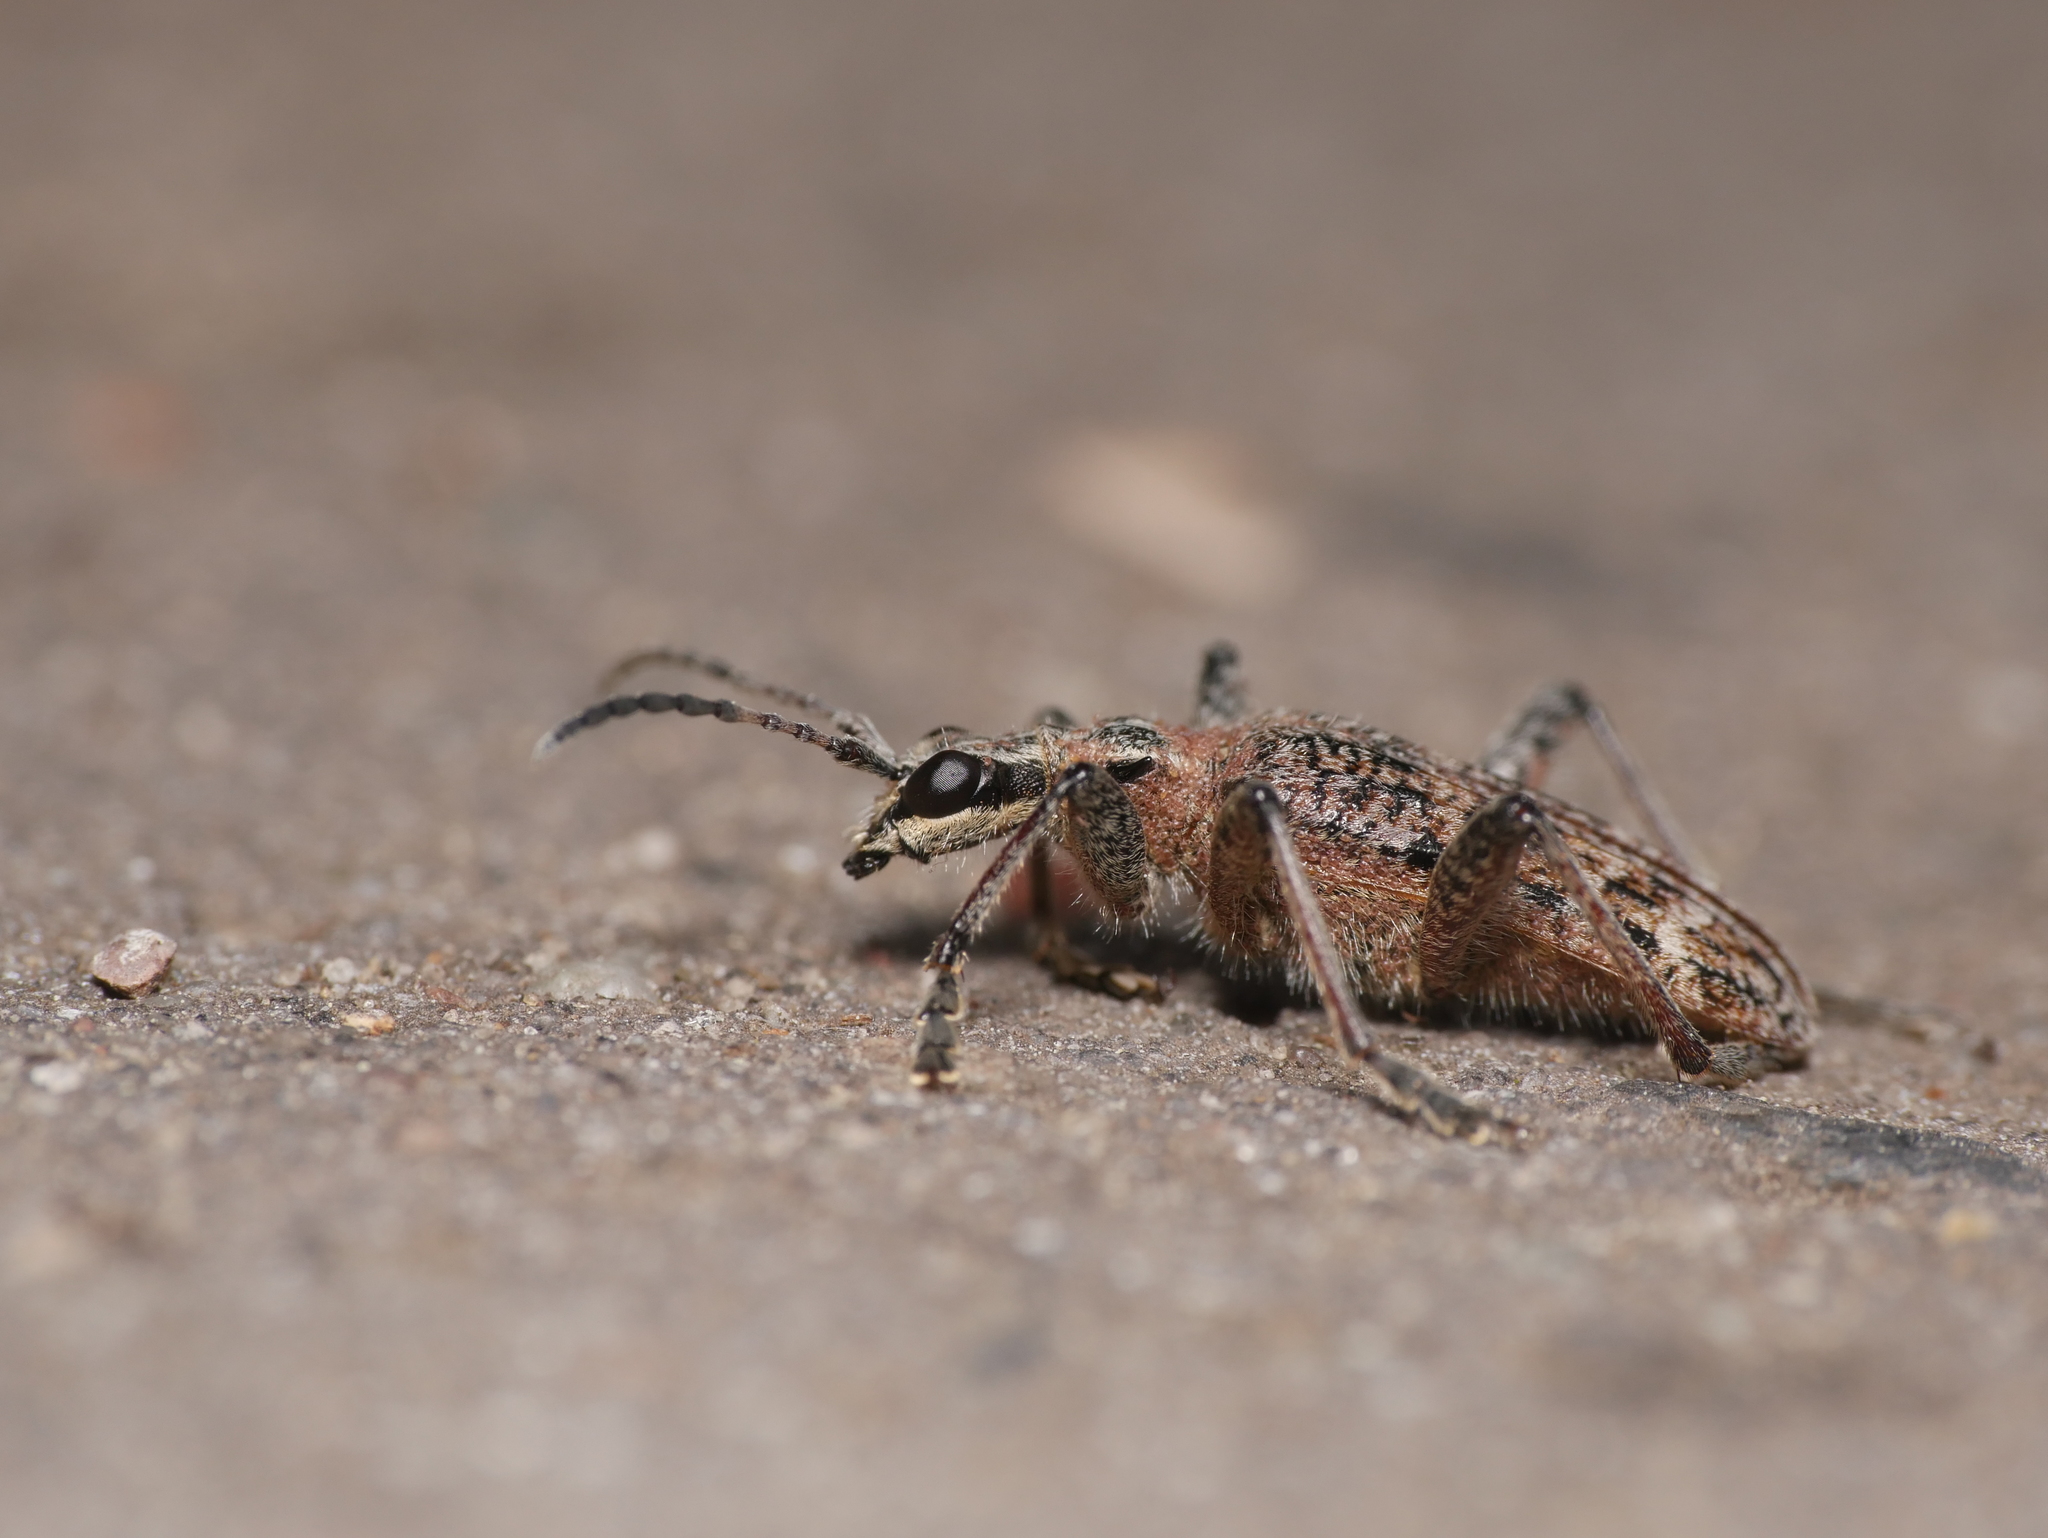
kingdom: Animalia
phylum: Arthropoda
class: Insecta
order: Coleoptera
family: Cerambycidae
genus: Rhagium
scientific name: Rhagium inquisitor
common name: Ribbed pine borer
